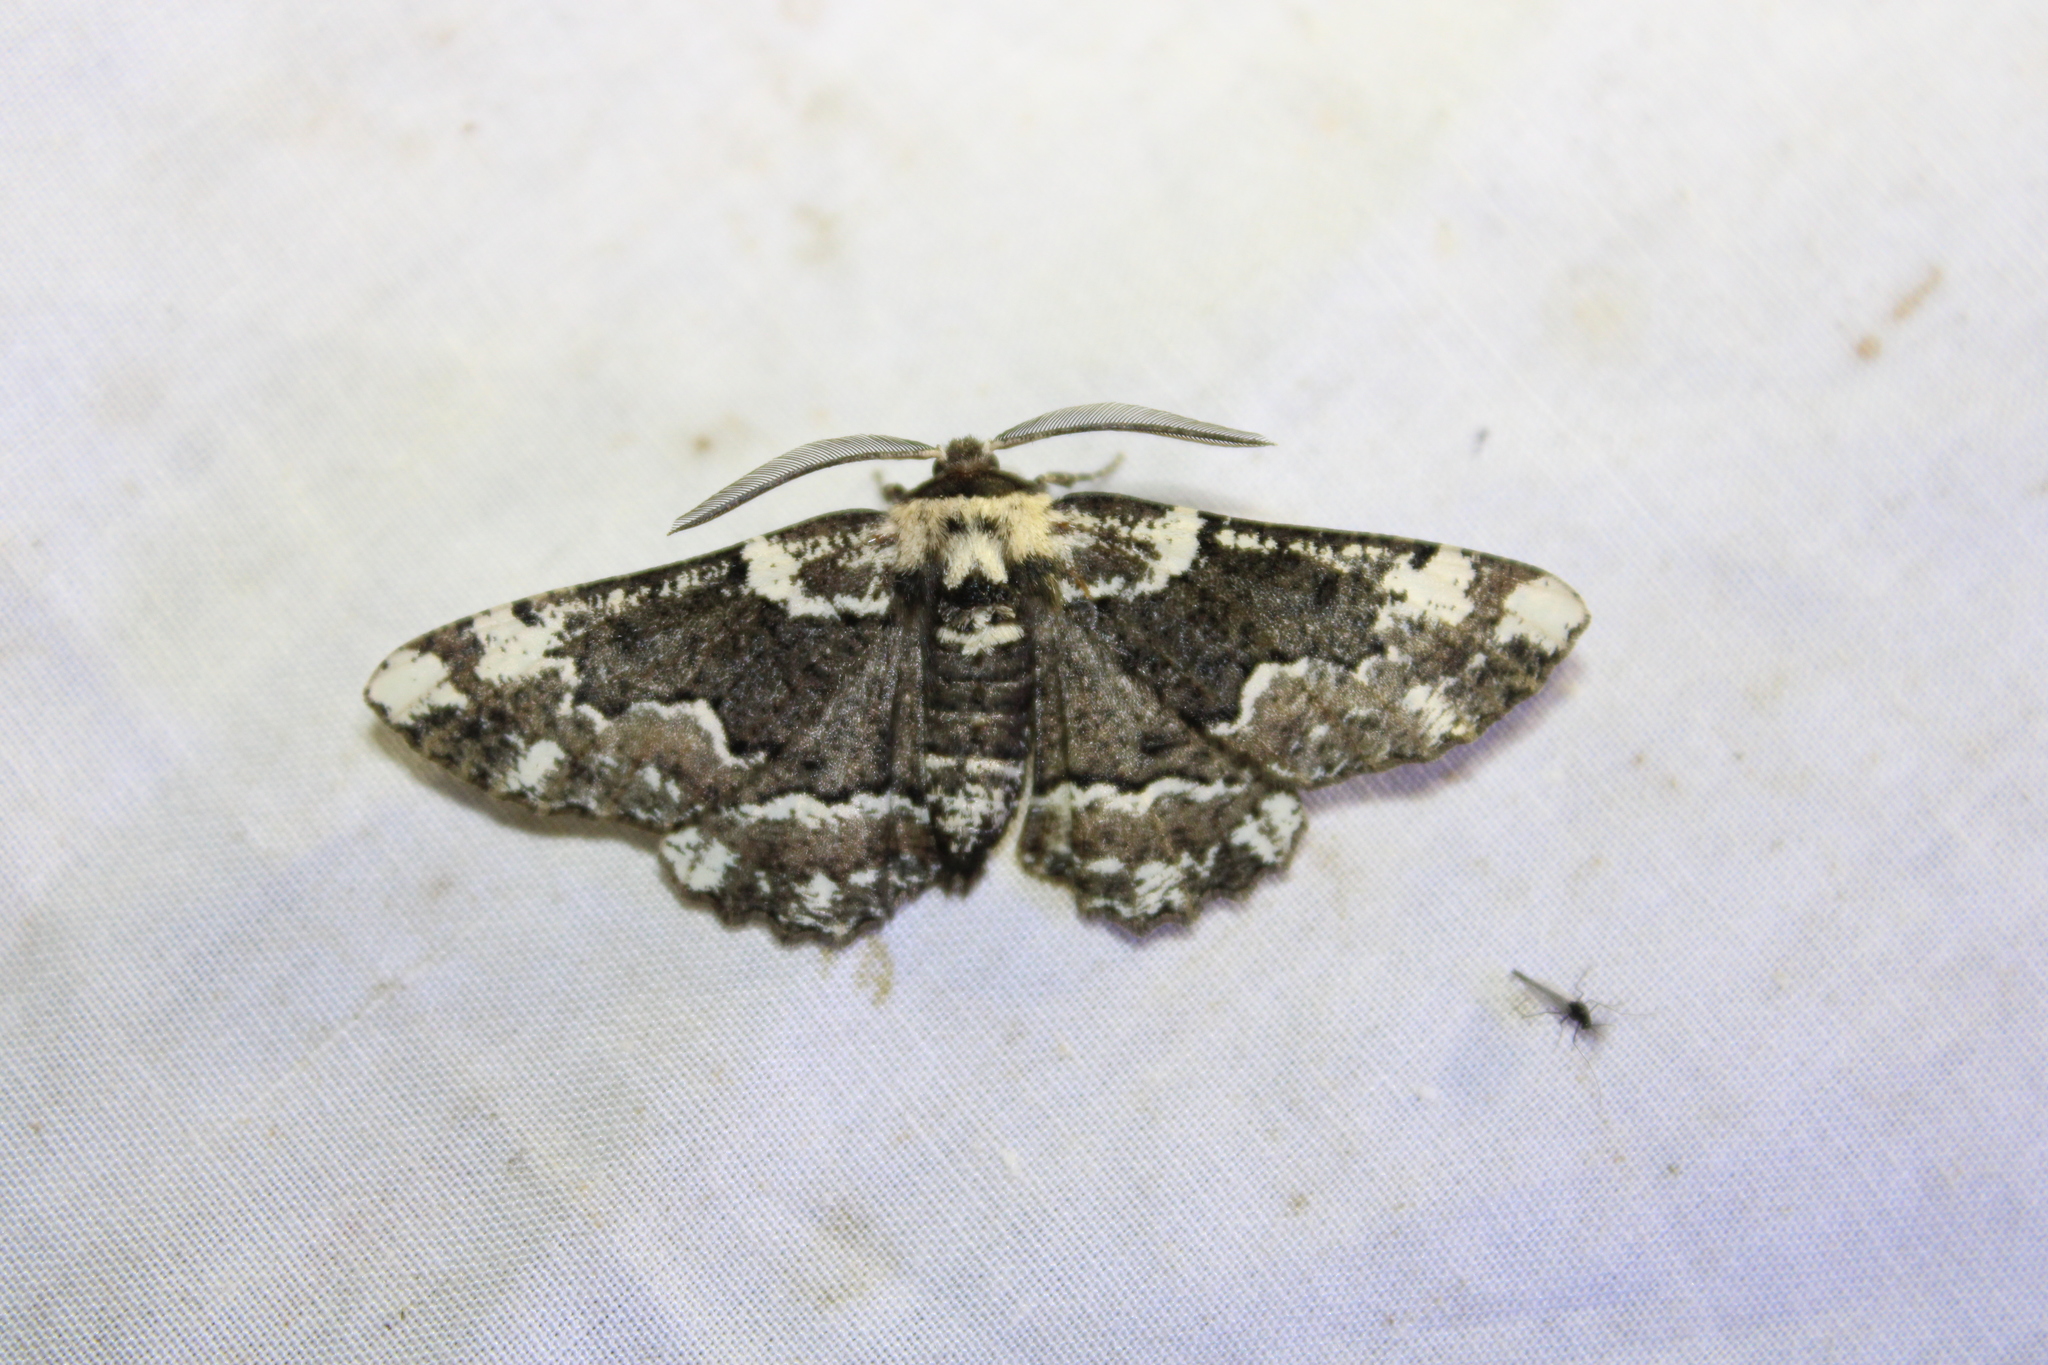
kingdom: Animalia
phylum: Arthropoda
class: Insecta
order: Lepidoptera
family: Geometridae
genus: Phaeoura
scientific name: Phaeoura quernaria
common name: Oak beauty
